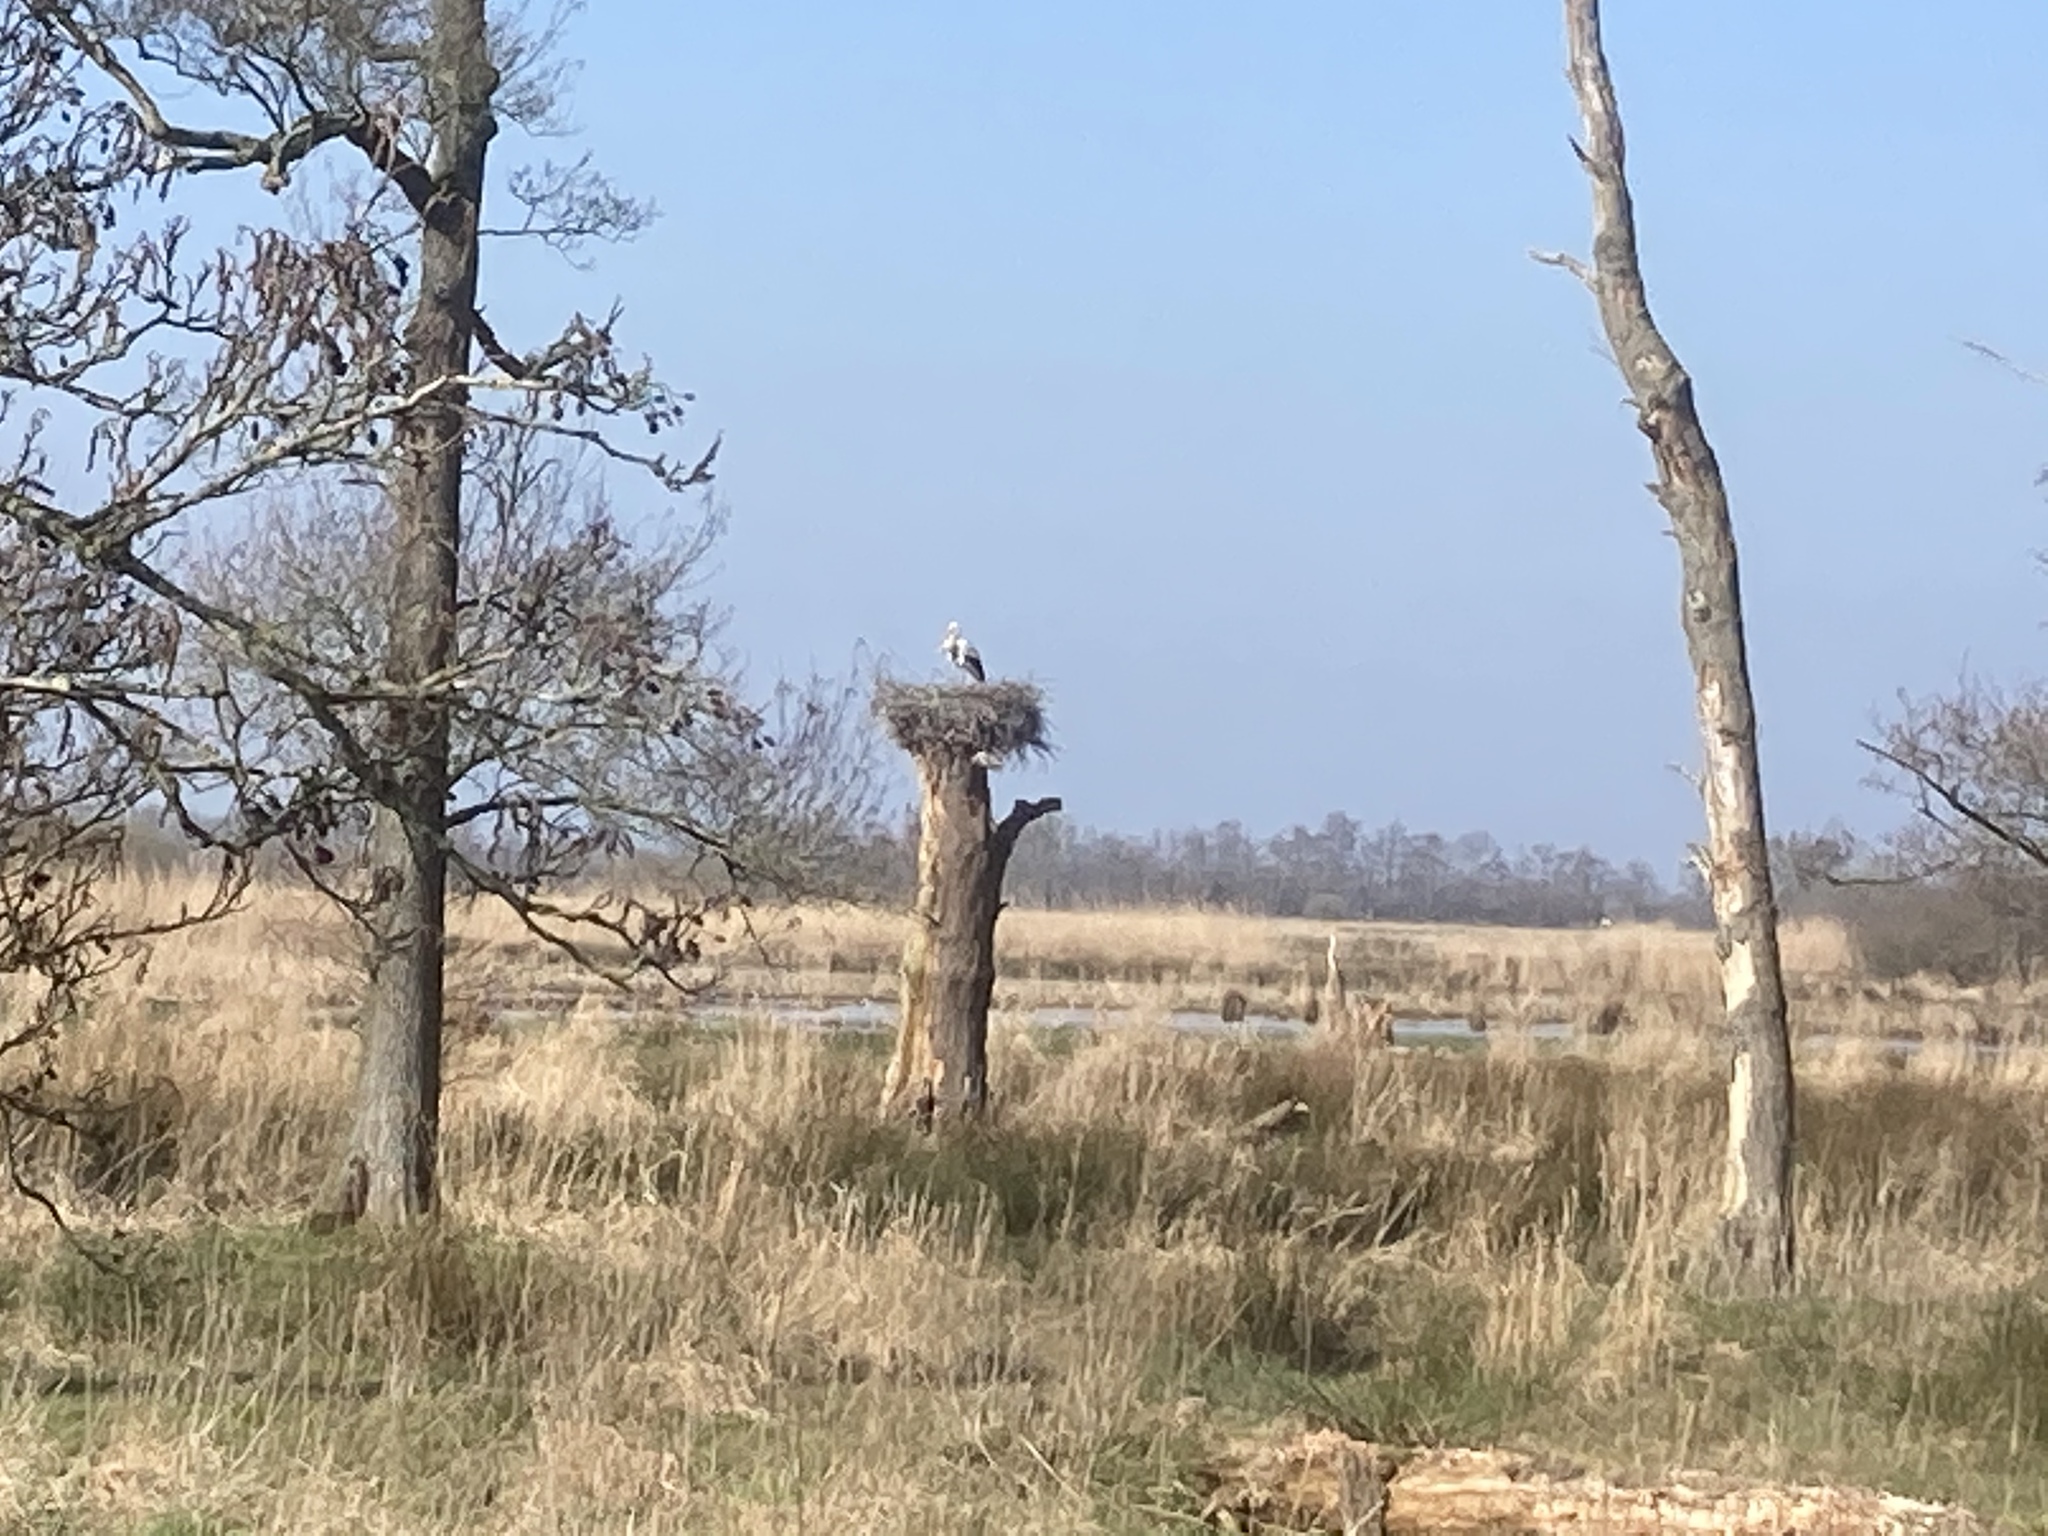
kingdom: Animalia
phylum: Chordata
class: Aves
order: Ciconiiformes
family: Ciconiidae
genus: Ciconia
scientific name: Ciconia ciconia
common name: White stork
